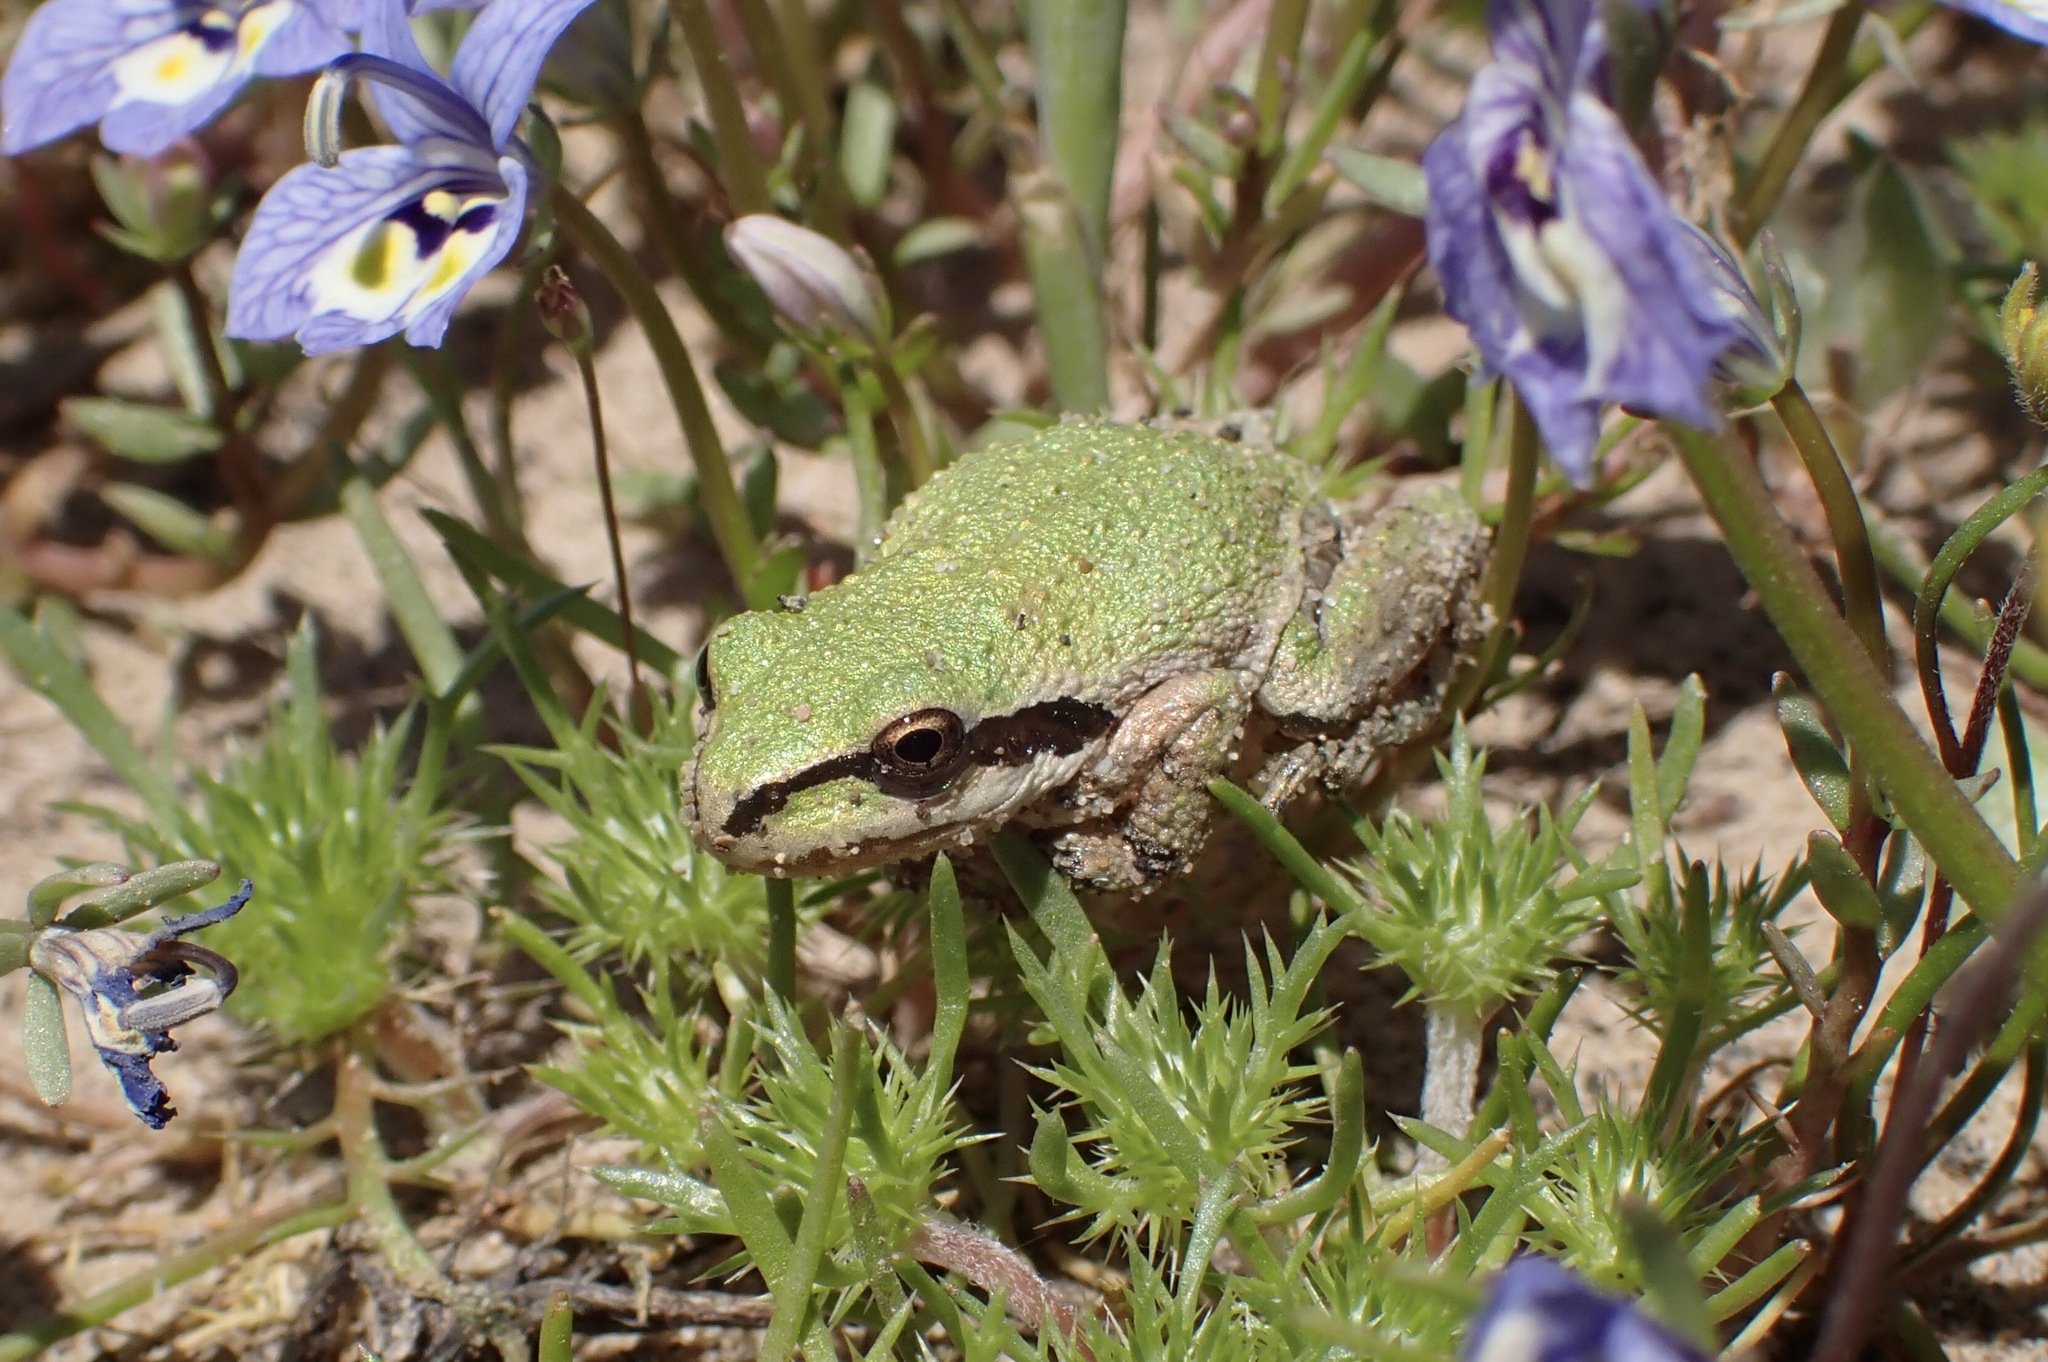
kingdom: Animalia
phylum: Chordata
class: Amphibia
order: Anura
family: Hylidae
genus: Pseudacris
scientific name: Pseudacris regilla
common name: Pacific chorus frog
